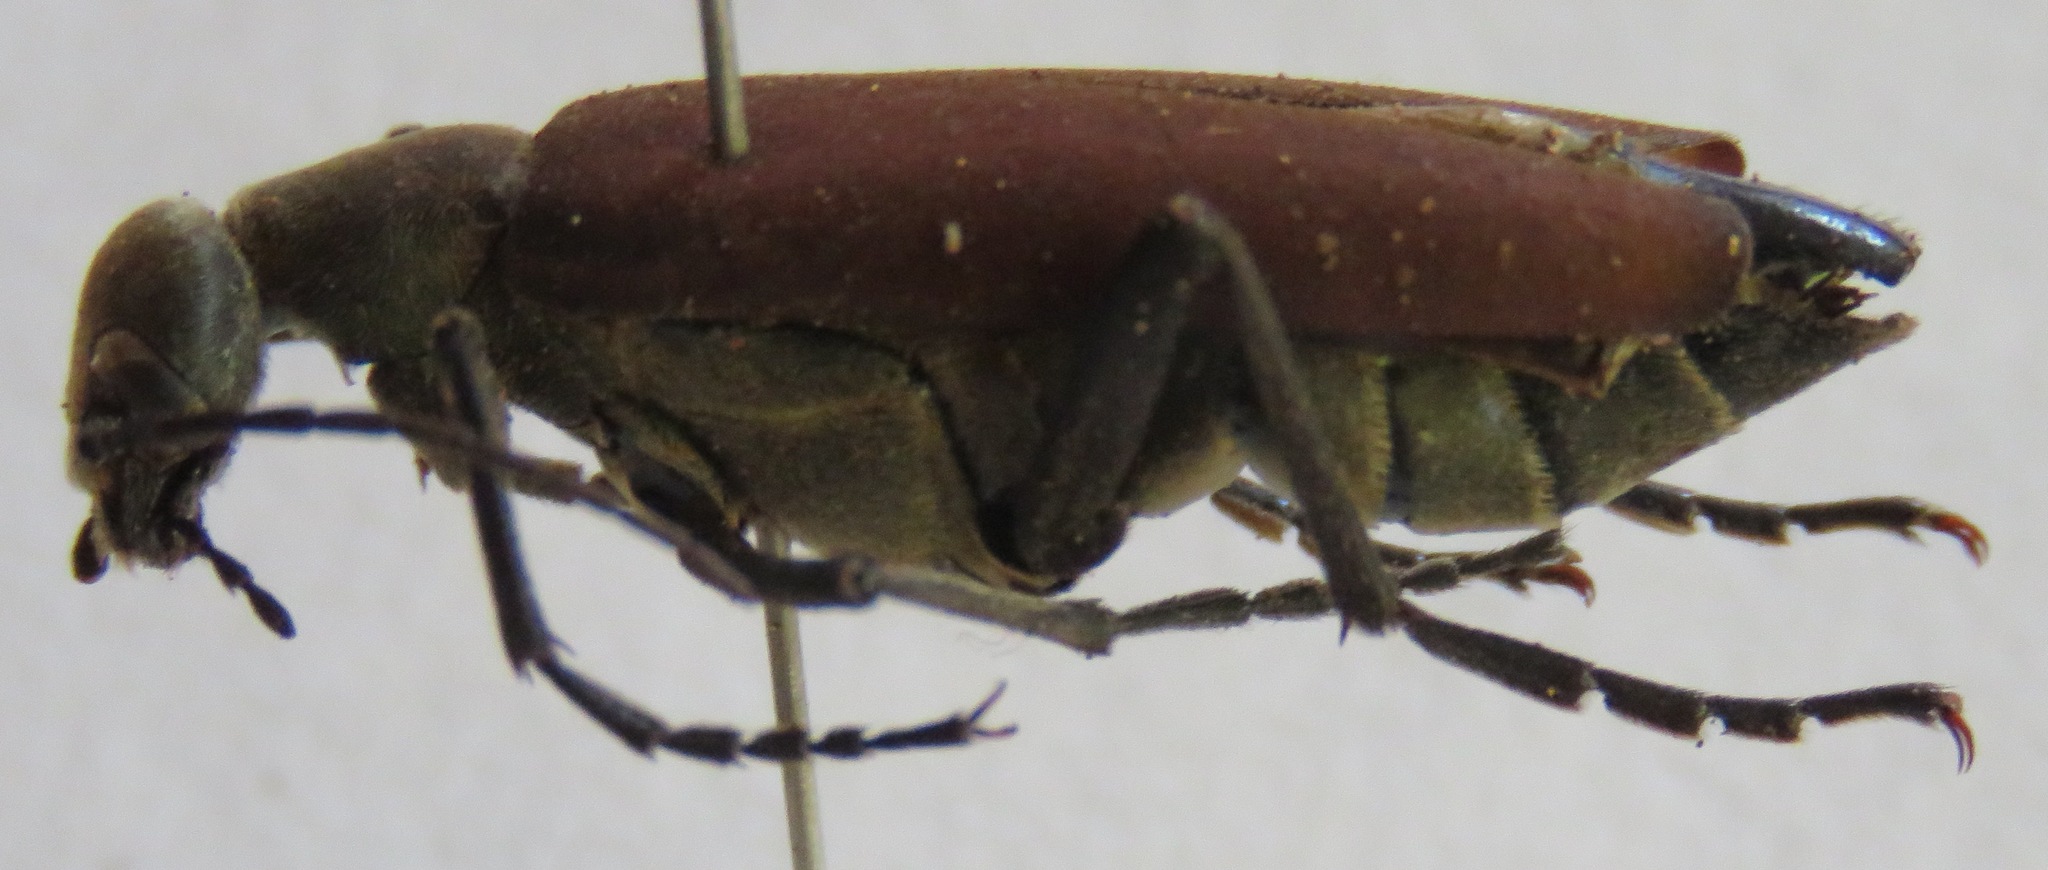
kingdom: Animalia
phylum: Arthropoda
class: Insecta
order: Coleoptera
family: Meloidae
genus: Epicauta
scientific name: Epicauta carmelita
